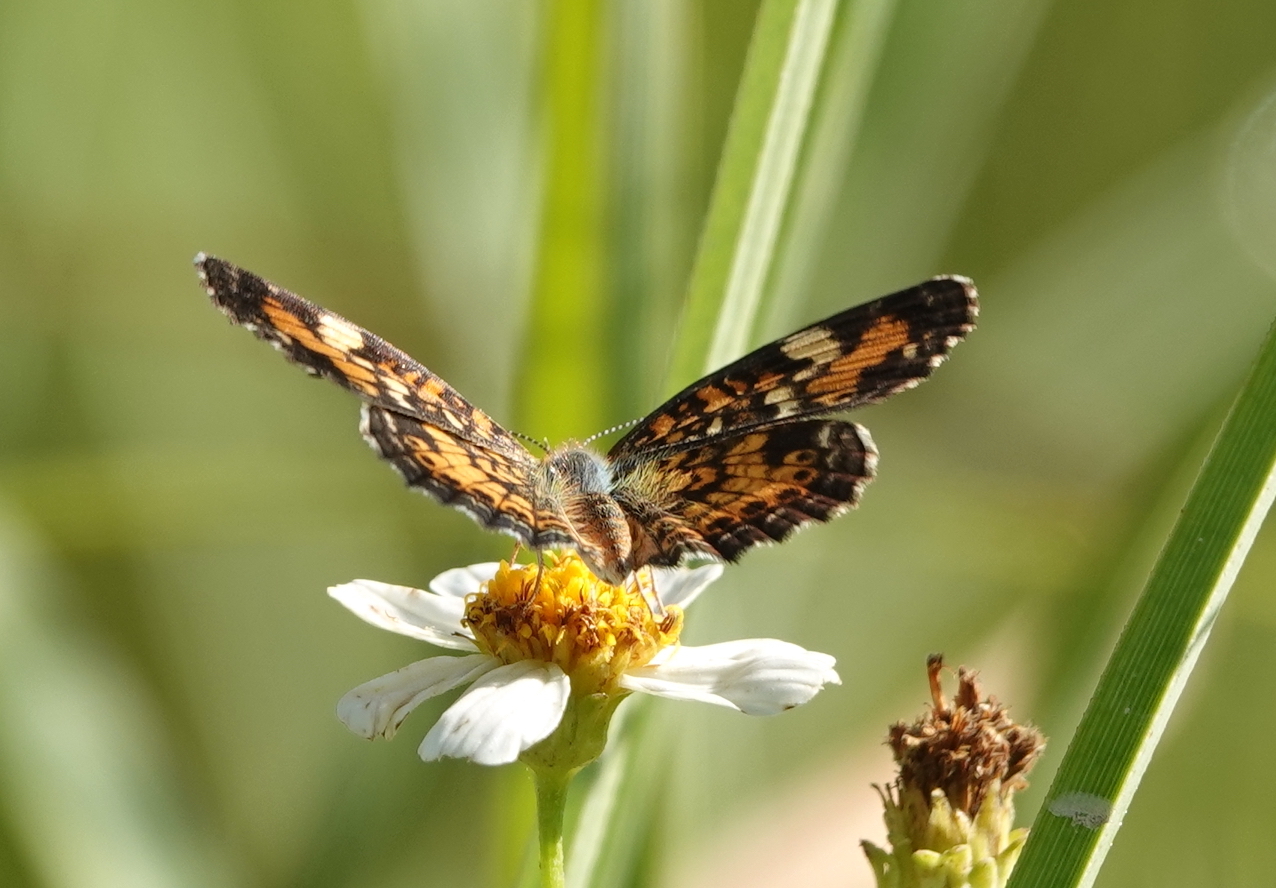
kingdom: Animalia
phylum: Arthropoda
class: Insecta
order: Lepidoptera
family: Nymphalidae
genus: Phyciodes
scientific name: Phyciodes phaon
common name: Phaon crescent
